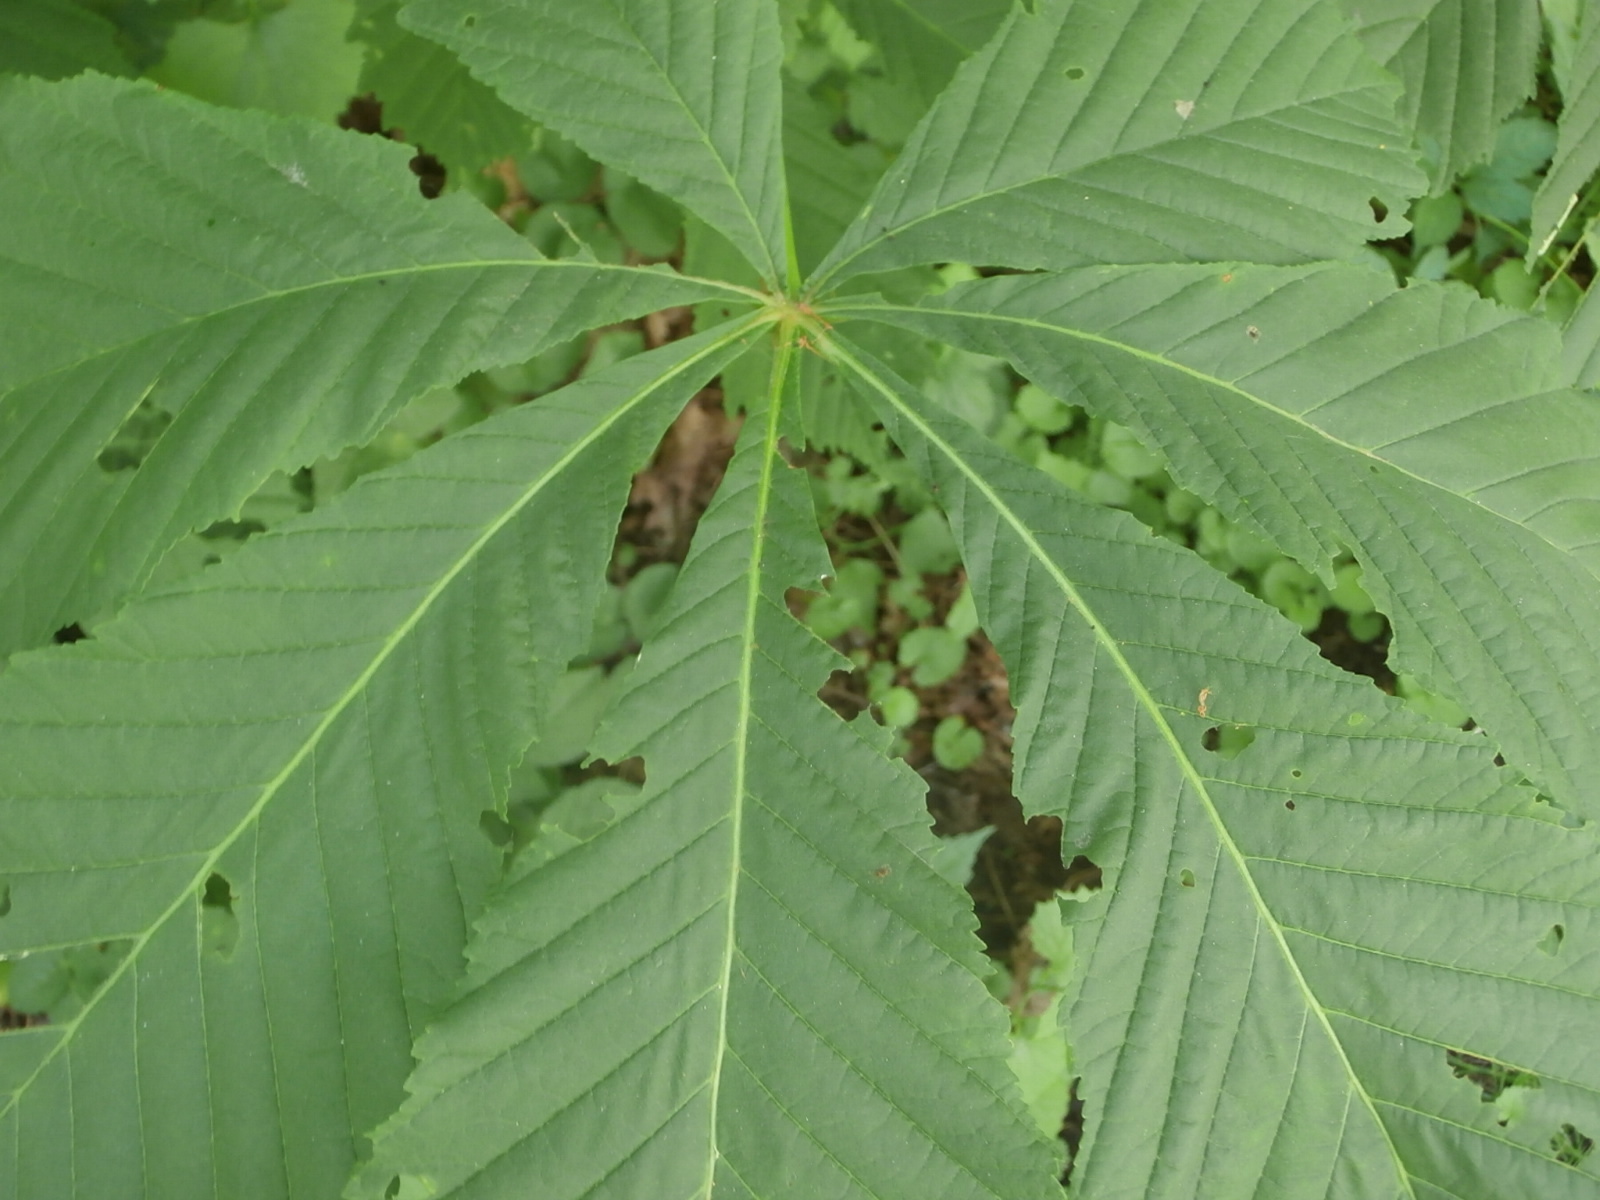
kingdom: Plantae
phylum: Tracheophyta
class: Magnoliopsida
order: Sapindales
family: Sapindaceae
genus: Aesculus
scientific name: Aesculus hippocastanum
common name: Horse-chestnut
